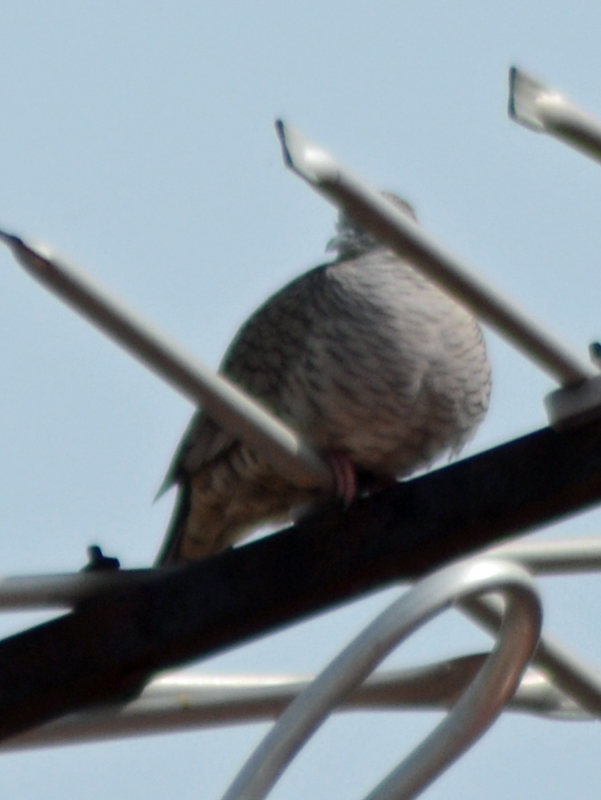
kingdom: Animalia
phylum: Chordata
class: Aves
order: Columbiformes
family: Columbidae
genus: Columbina
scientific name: Columbina inca
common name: Inca dove
